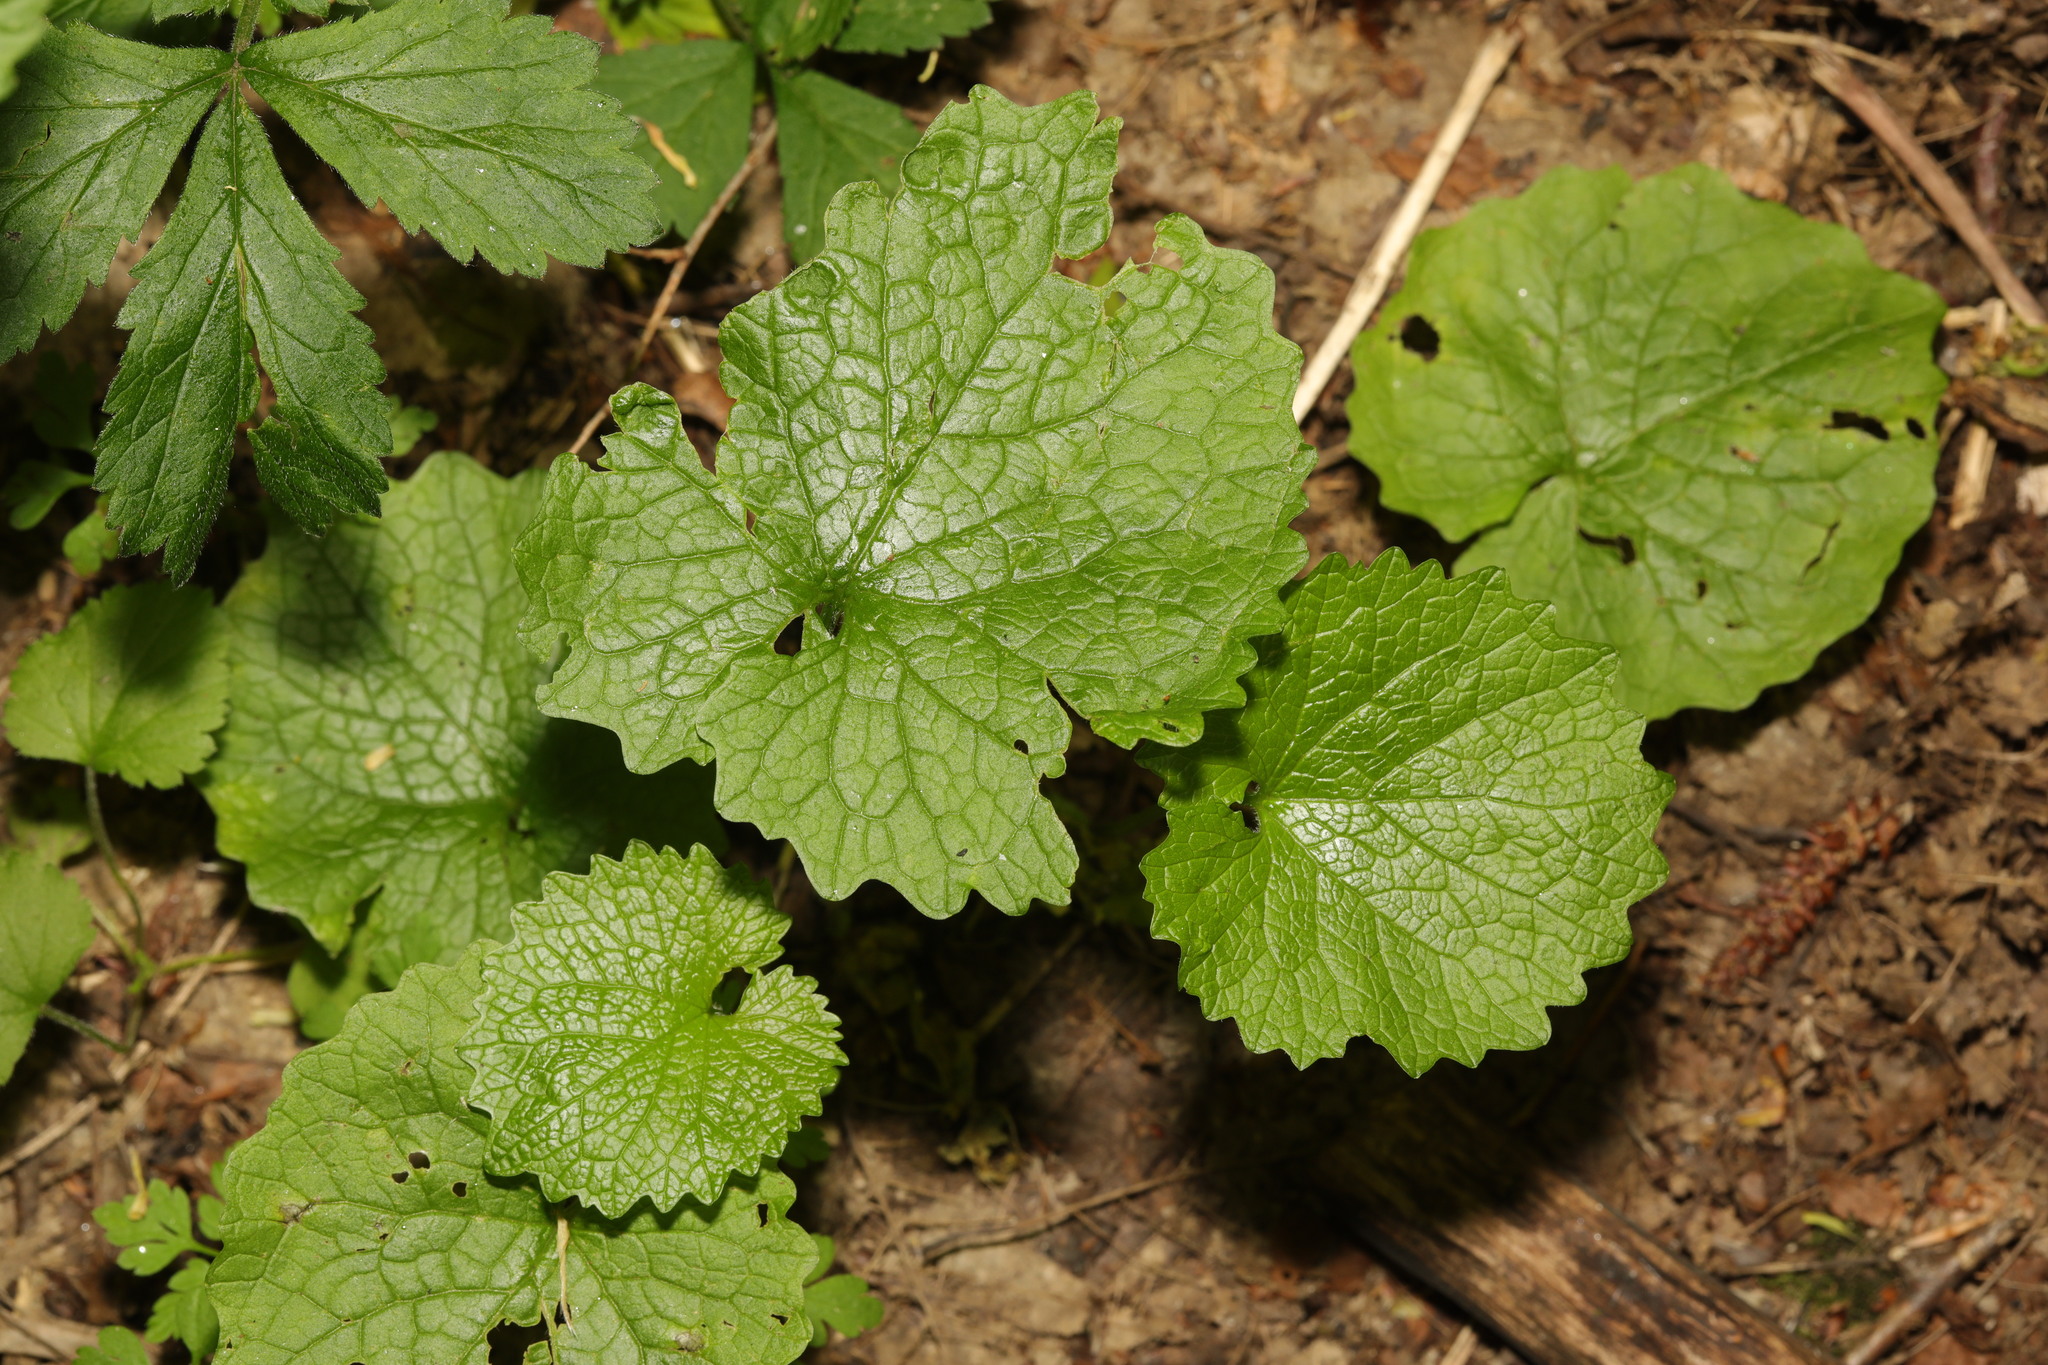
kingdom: Plantae
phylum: Tracheophyta
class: Magnoliopsida
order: Brassicales
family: Brassicaceae
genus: Alliaria
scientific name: Alliaria petiolata
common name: Garlic mustard
